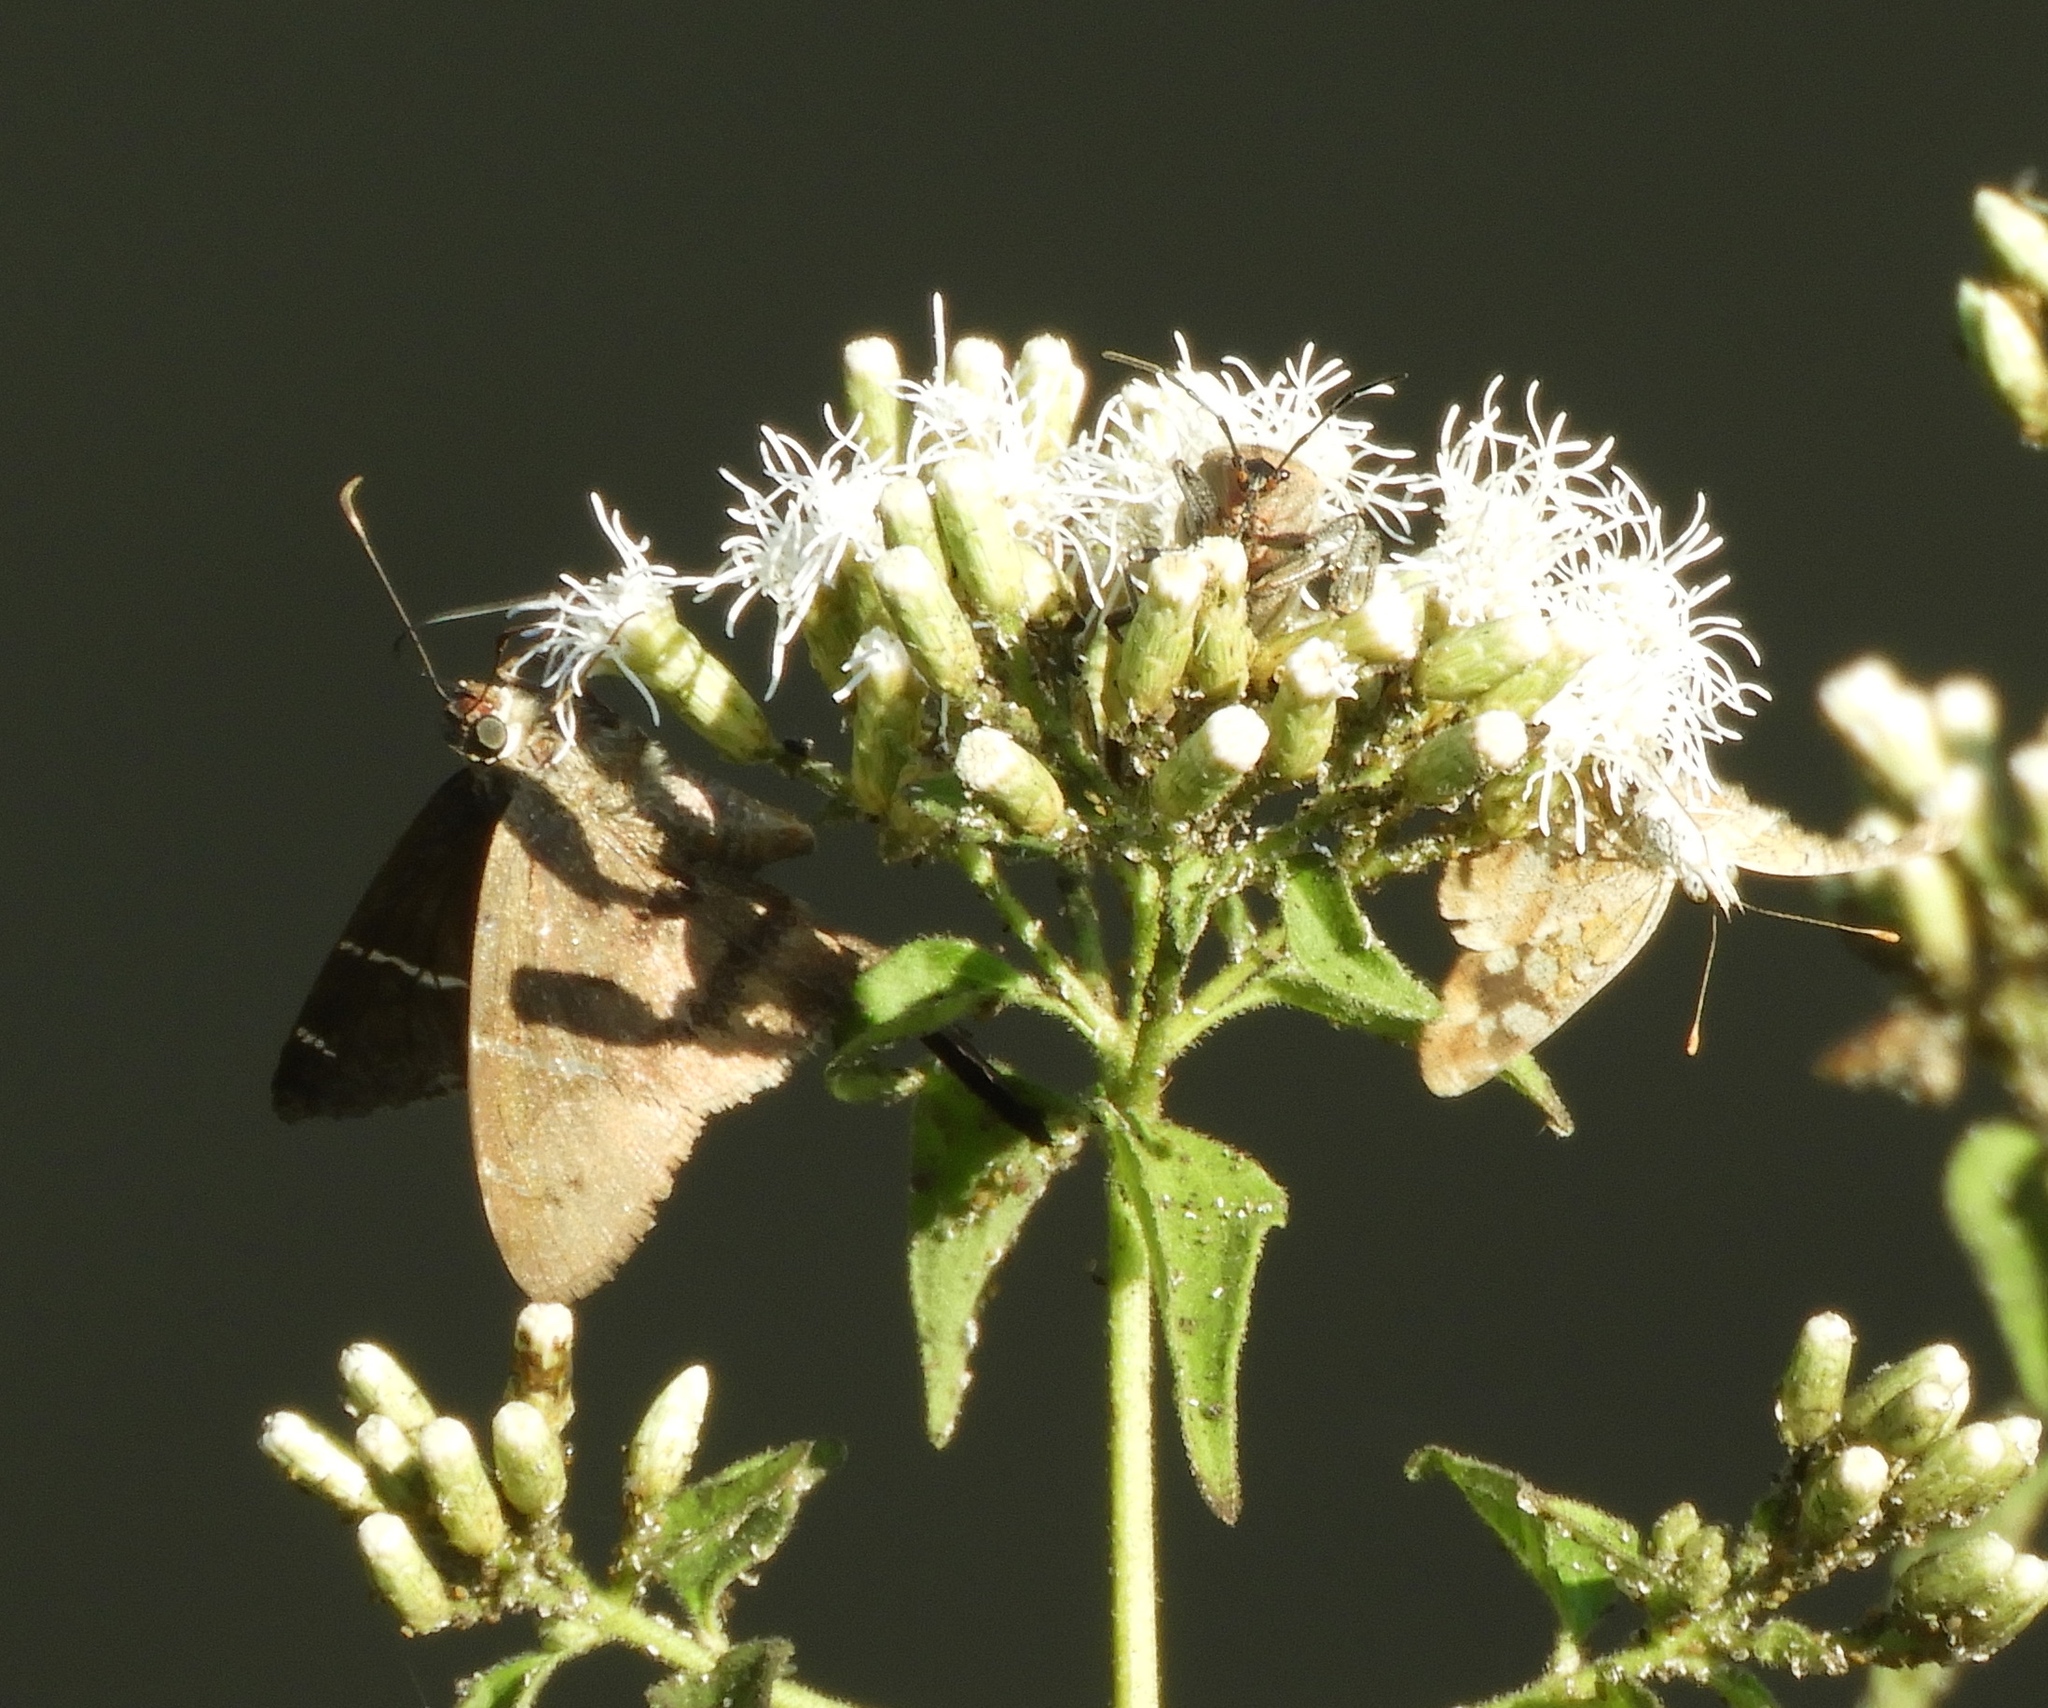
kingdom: Plantae
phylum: Tracheophyta
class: Magnoliopsida
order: Asterales
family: Asteraceae
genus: Chromolaena
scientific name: Chromolaena odorata
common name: Siamweed
